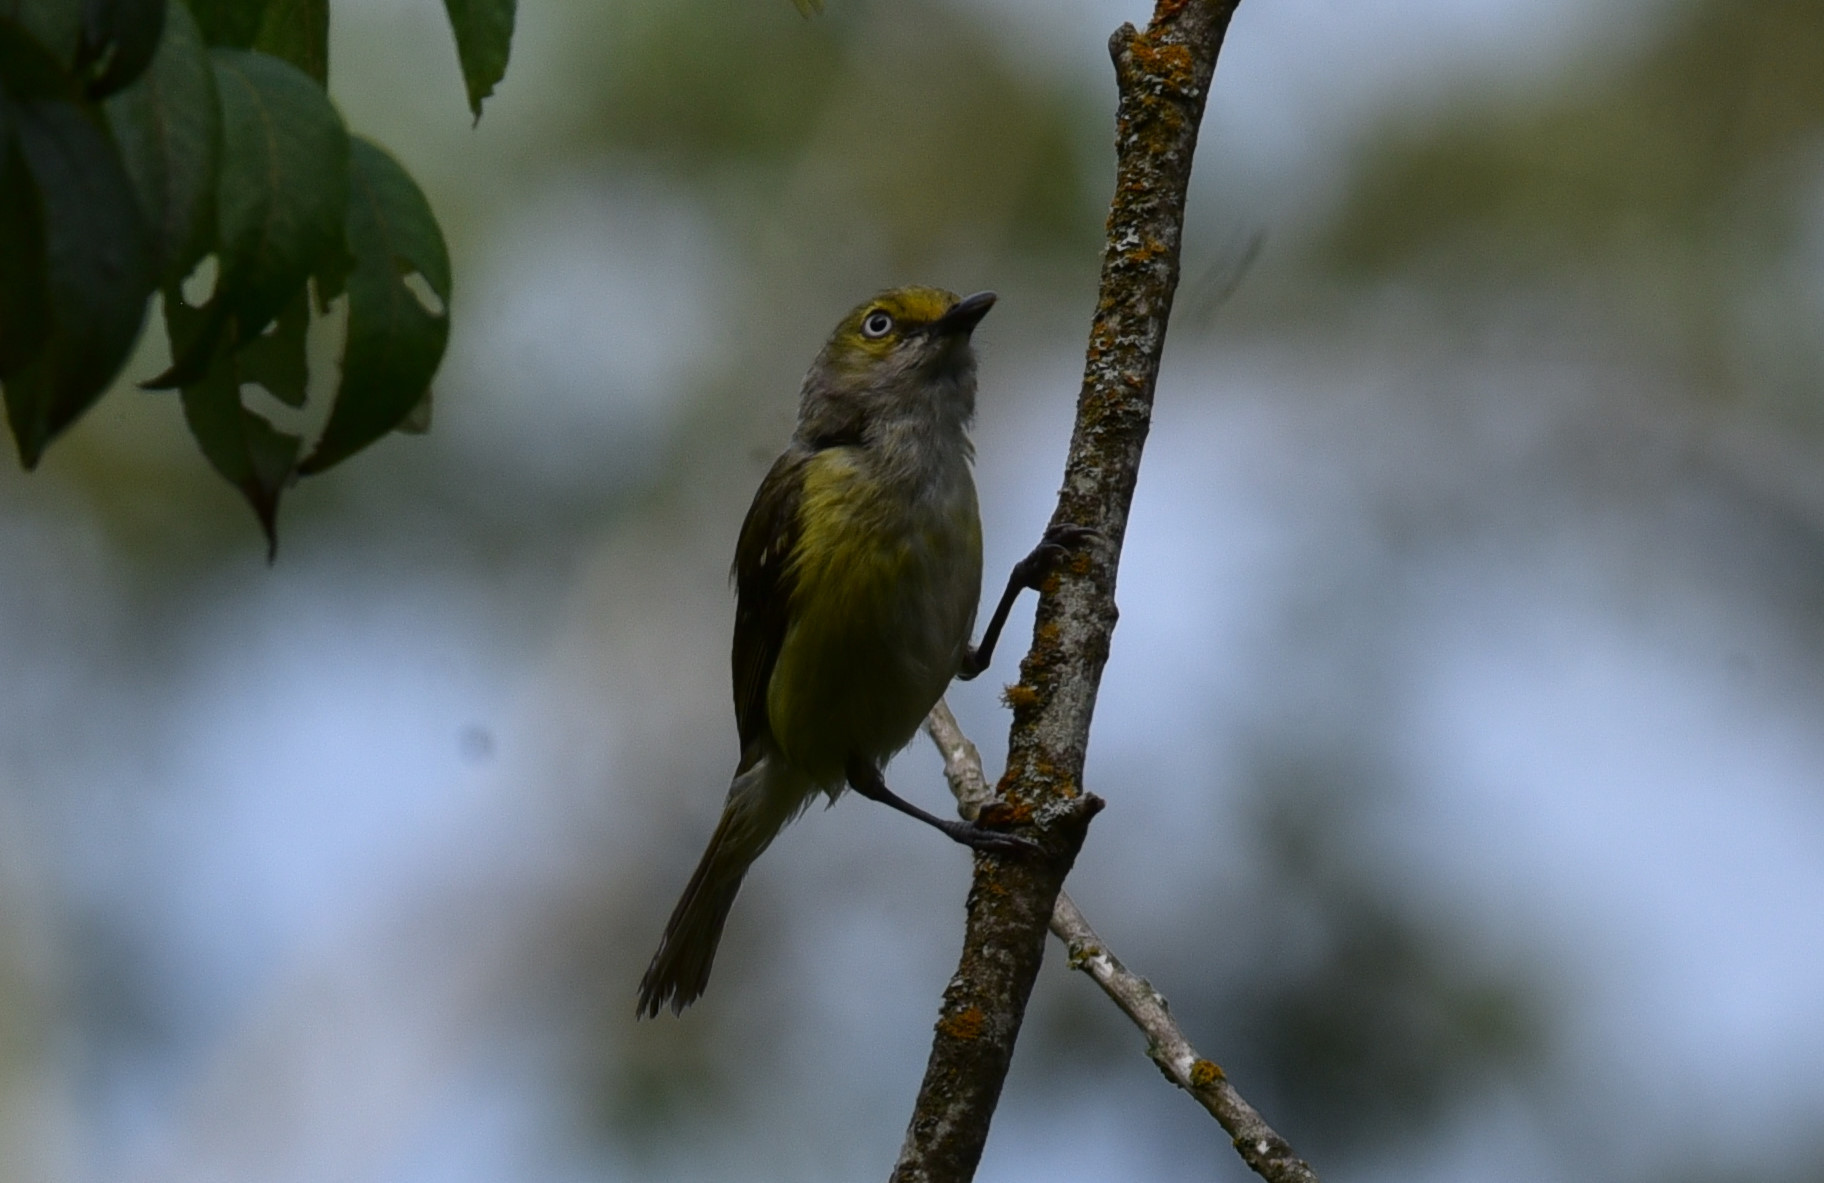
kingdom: Animalia
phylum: Chordata
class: Aves
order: Passeriformes
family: Vireonidae
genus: Vireo
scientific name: Vireo griseus
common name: White-eyed vireo
